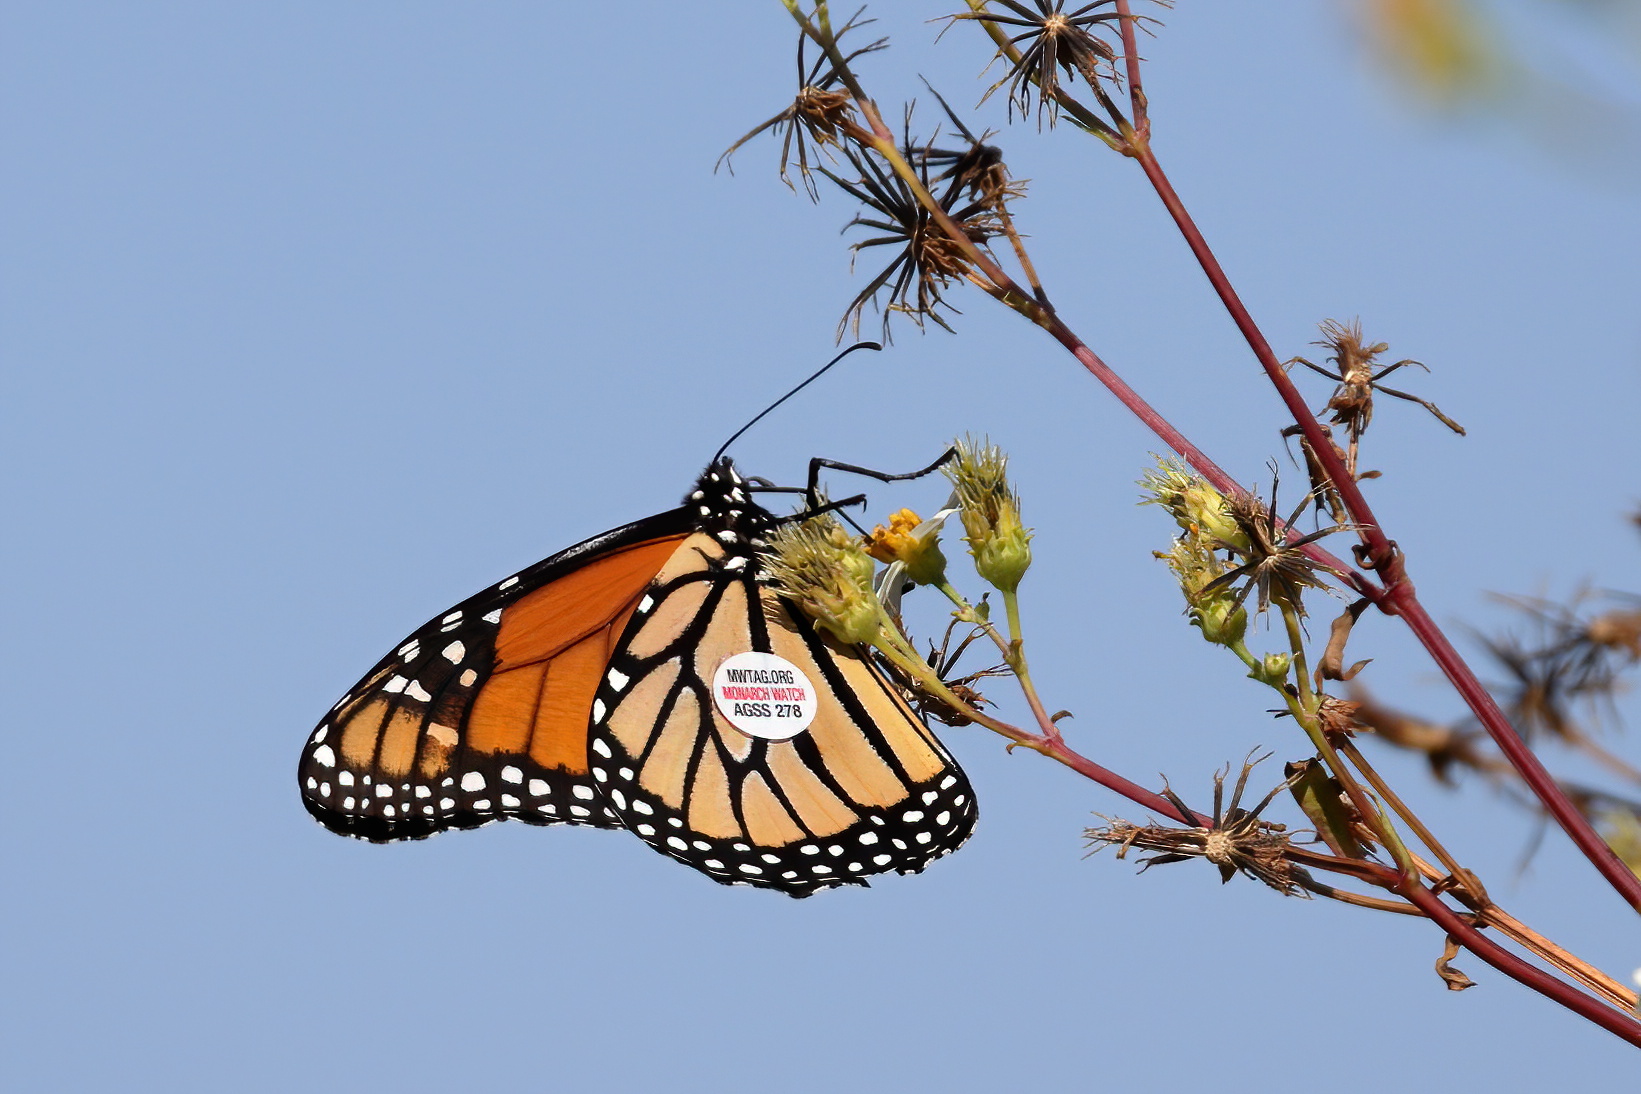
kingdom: Animalia
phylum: Arthropoda
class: Insecta
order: Lepidoptera
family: Nymphalidae
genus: Danaus
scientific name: Danaus plexippus
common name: Monarch
